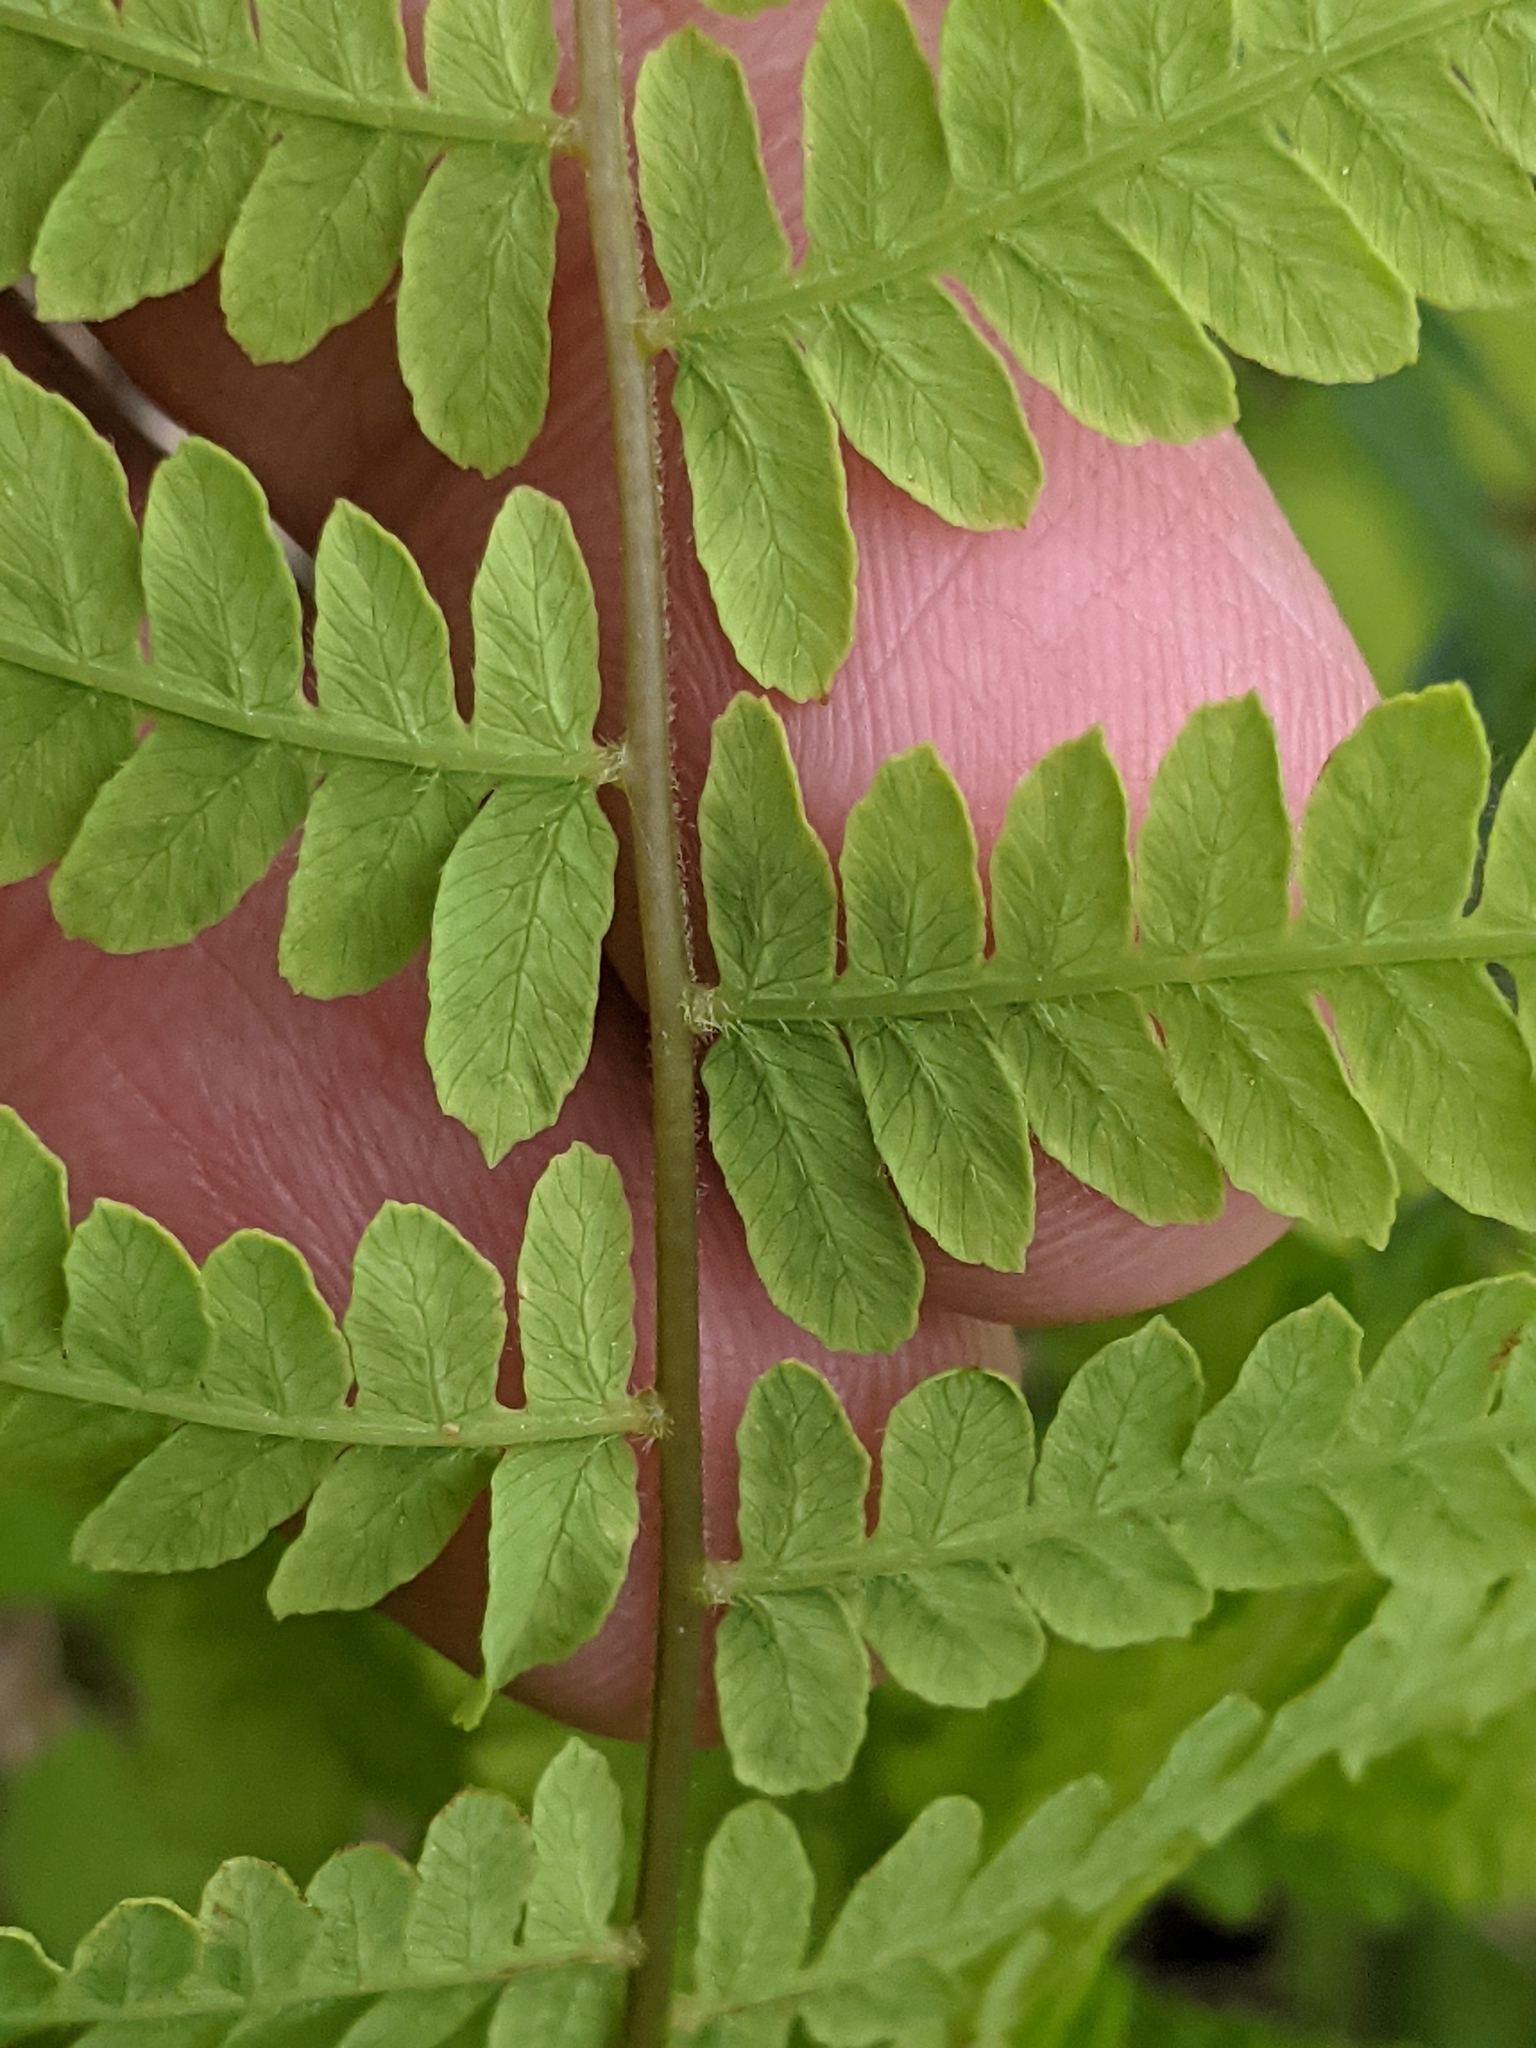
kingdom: Plantae
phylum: Tracheophyta
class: Polypodiopsida
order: Polypodiales
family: Thelypteridaceae
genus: Thelypteris
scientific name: Thelypteris palustris
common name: Marsh fern
